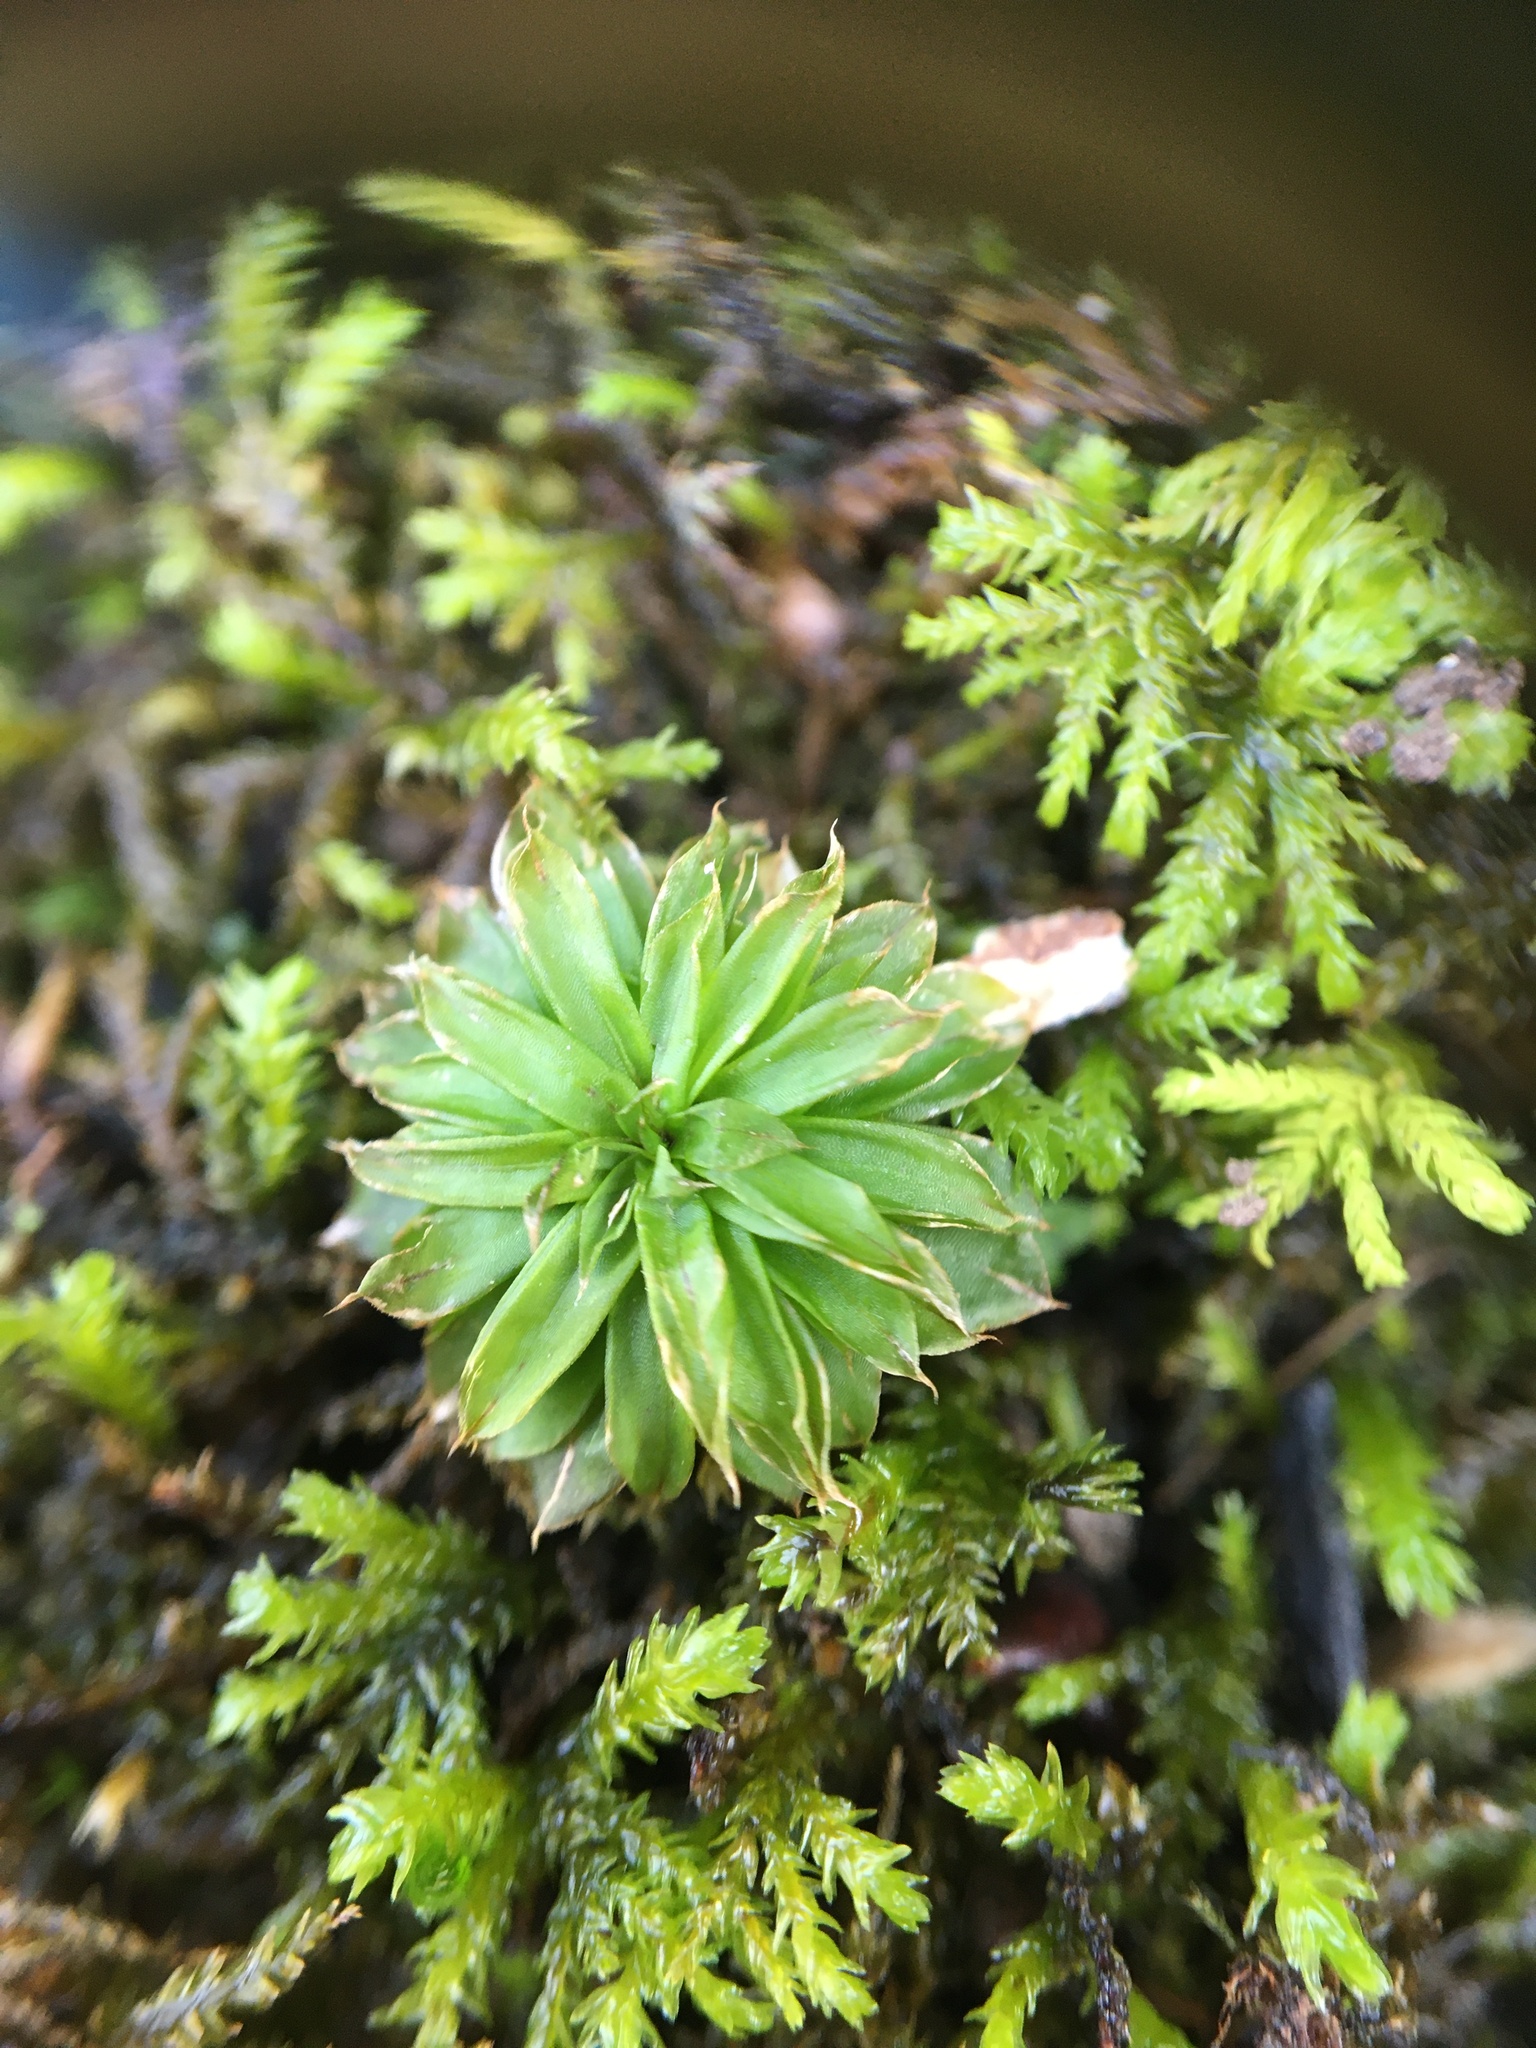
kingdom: Plantae
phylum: Bryophyta
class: Bryopsida
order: Bryales
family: Bryaceae
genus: Rhodobryum
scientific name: Rhodobryum ontariense
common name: Ontario rhodobryum moss
